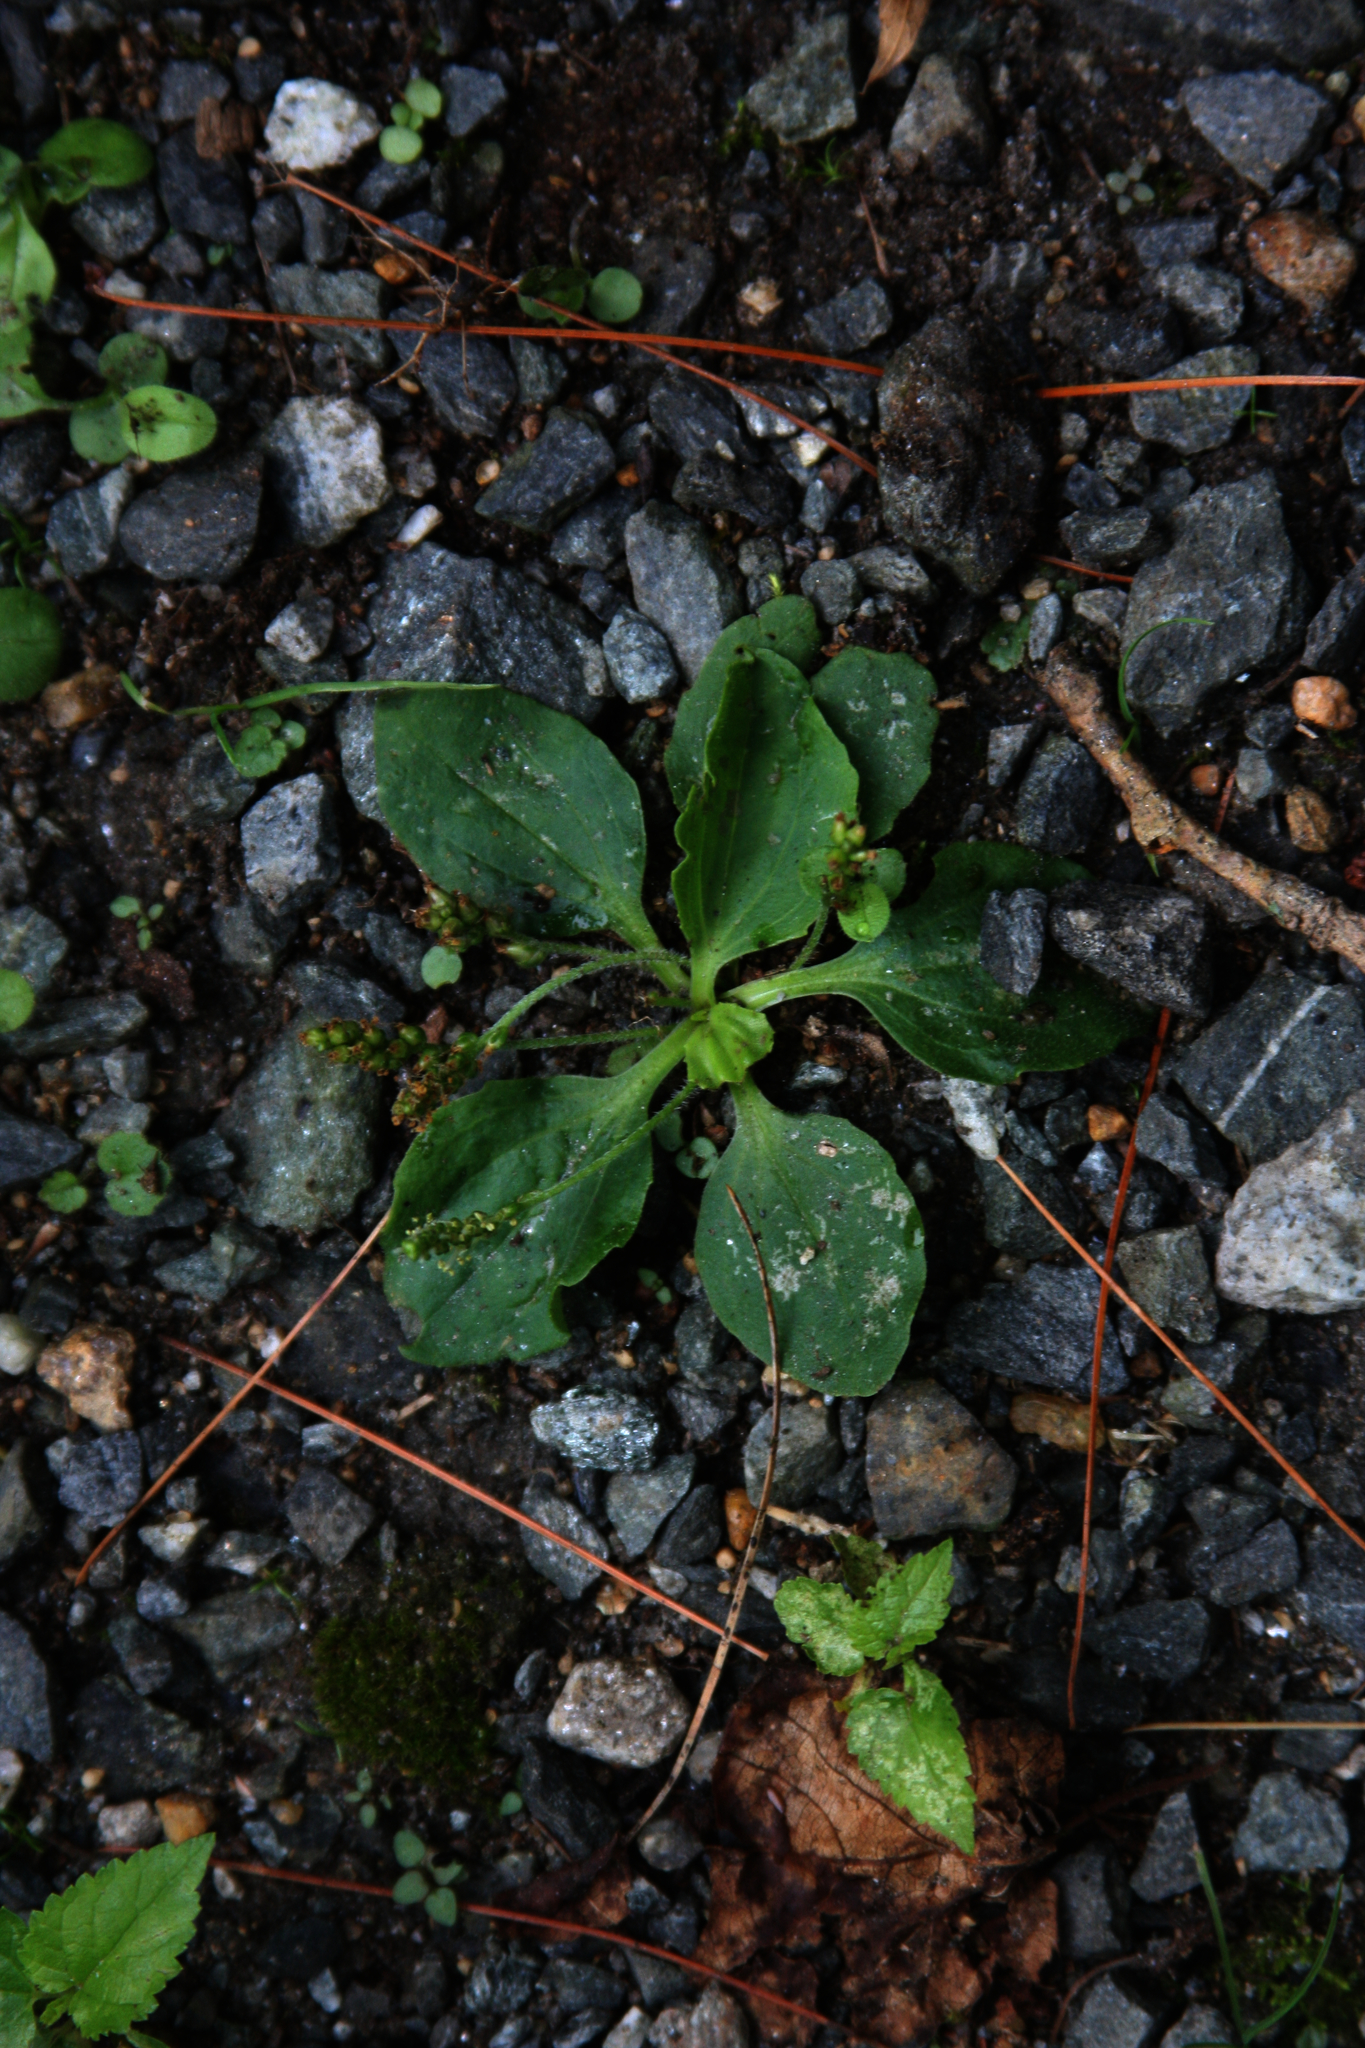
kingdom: Plantae
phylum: Tracheophyta
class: Magnoliopsida
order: Lamiales
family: Plantaginaceae
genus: Plantago
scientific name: Plantago major
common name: Common plantain
